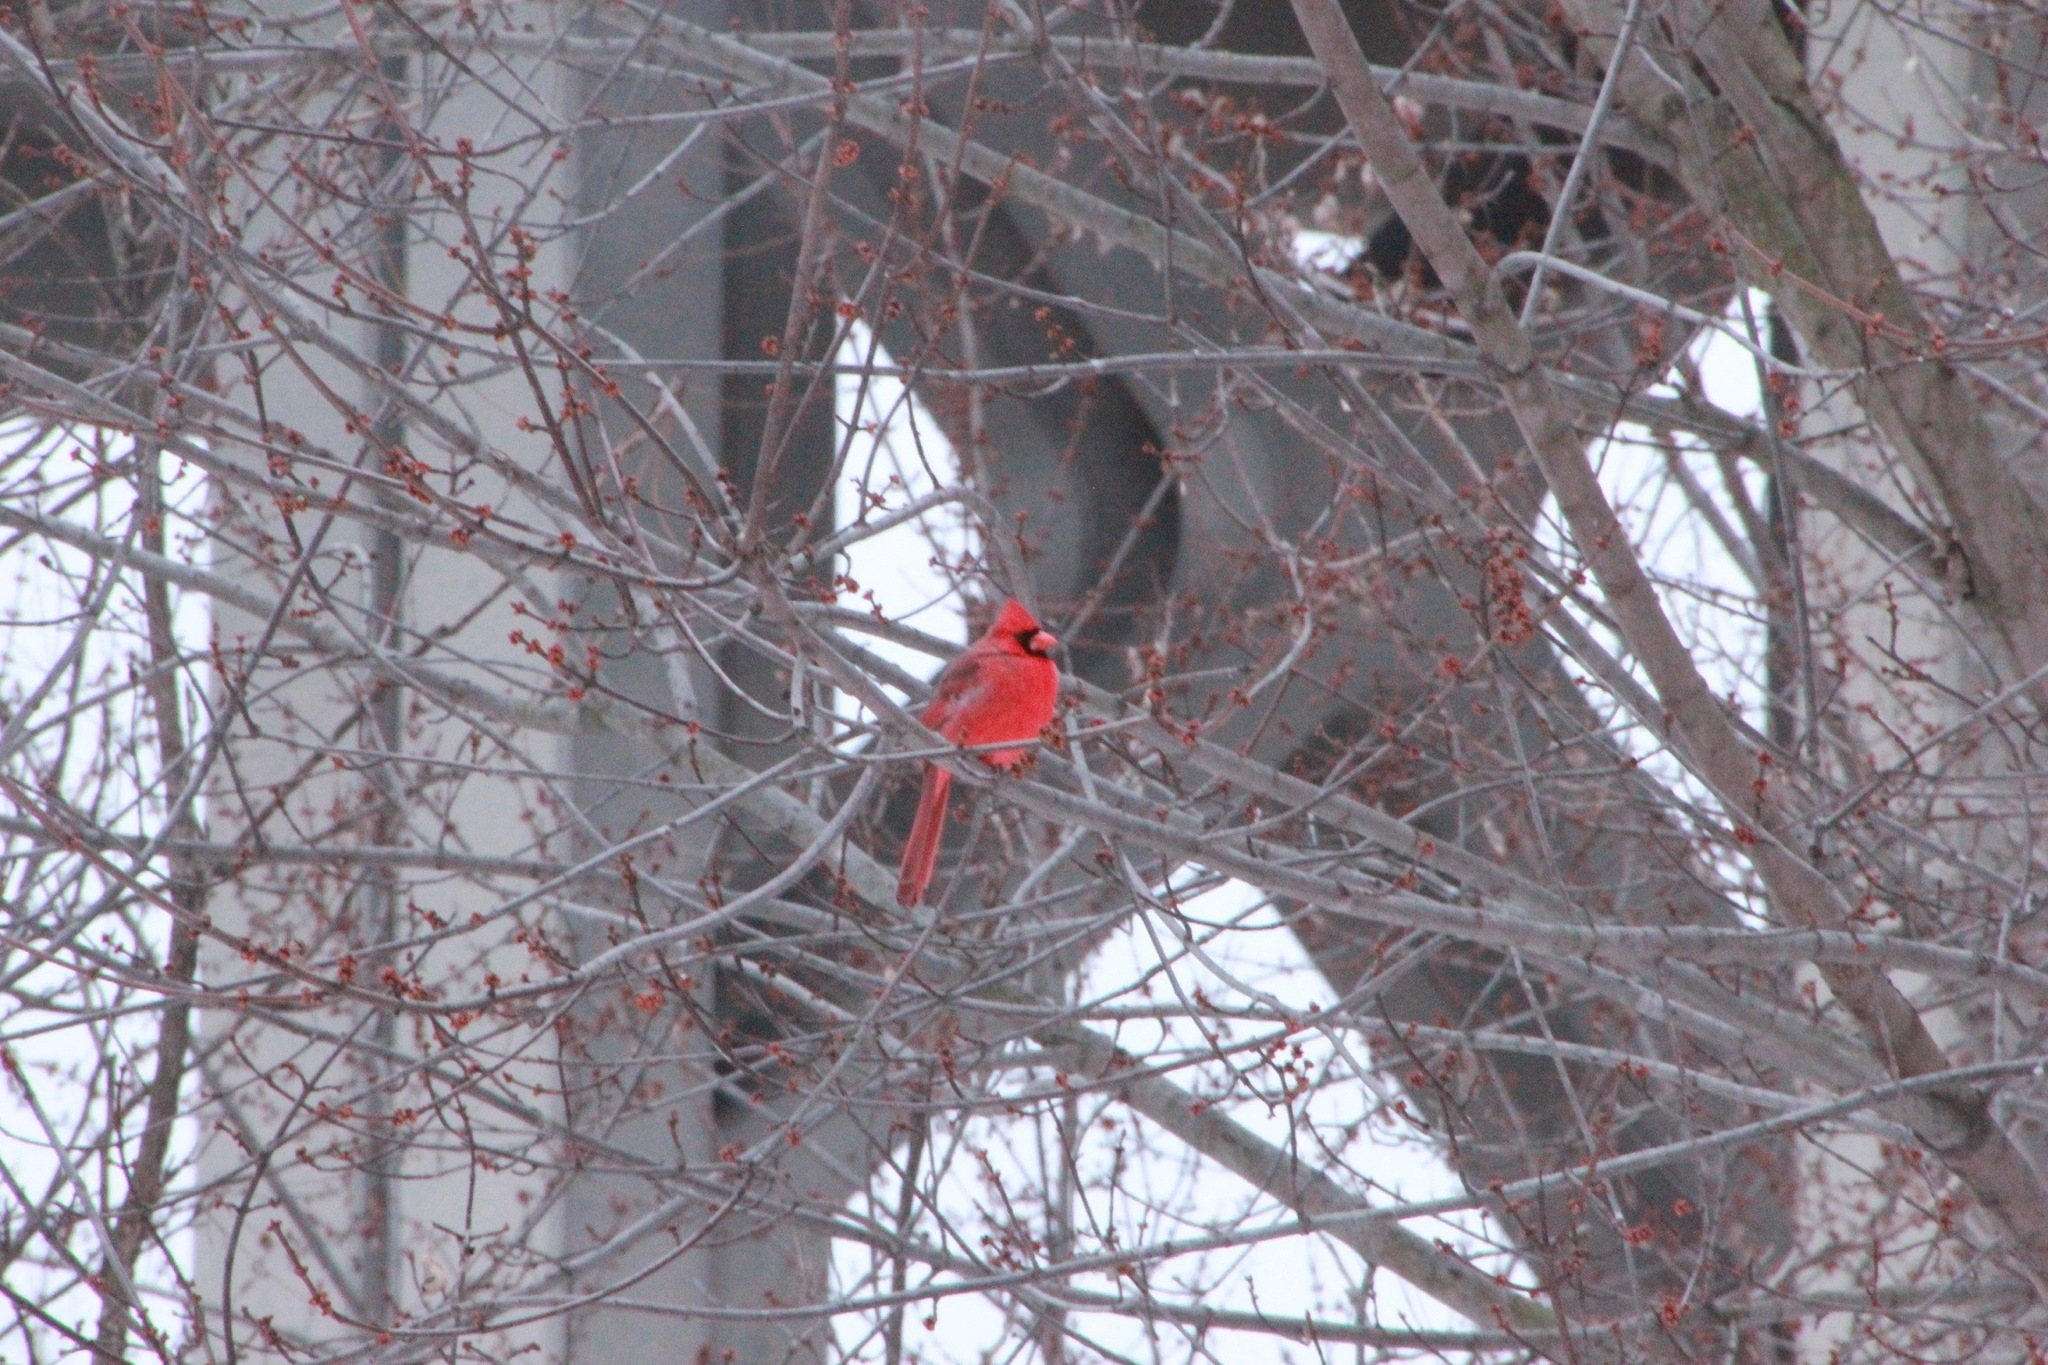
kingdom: Animalia
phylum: Chordata
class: Aves
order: Passeriformes
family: Cardinalidae
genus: Cardinalis
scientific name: Cardinalis cardinalis
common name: Northern cardinal
